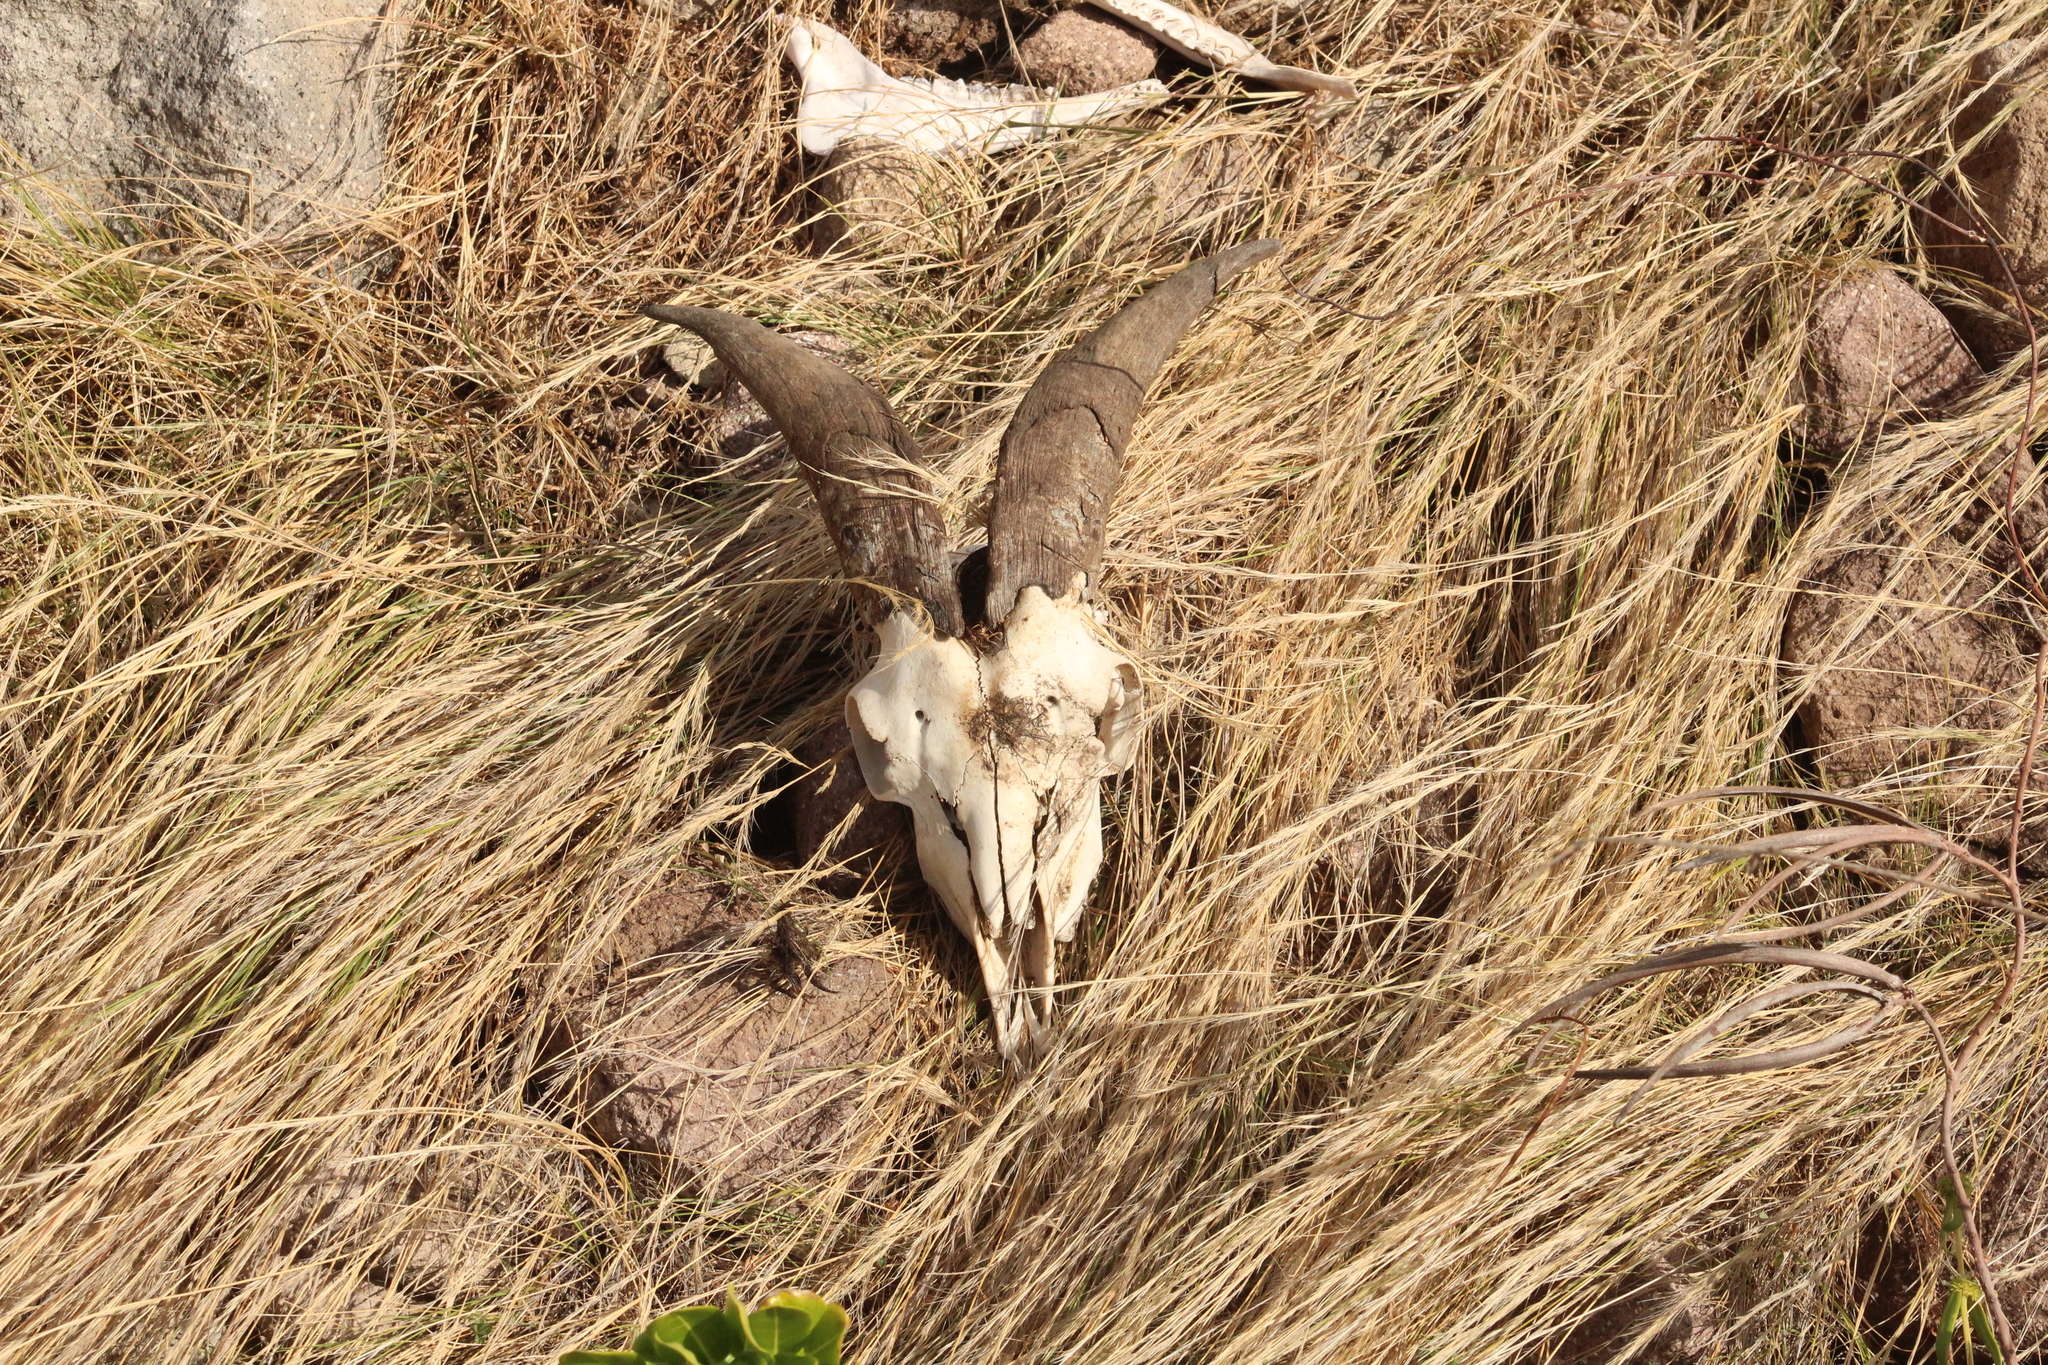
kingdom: Animalia
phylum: Chordata
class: Mammalia
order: Artiodactyla
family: Bovidae
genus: Capra
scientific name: Capra hircus
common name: Domestic goat
